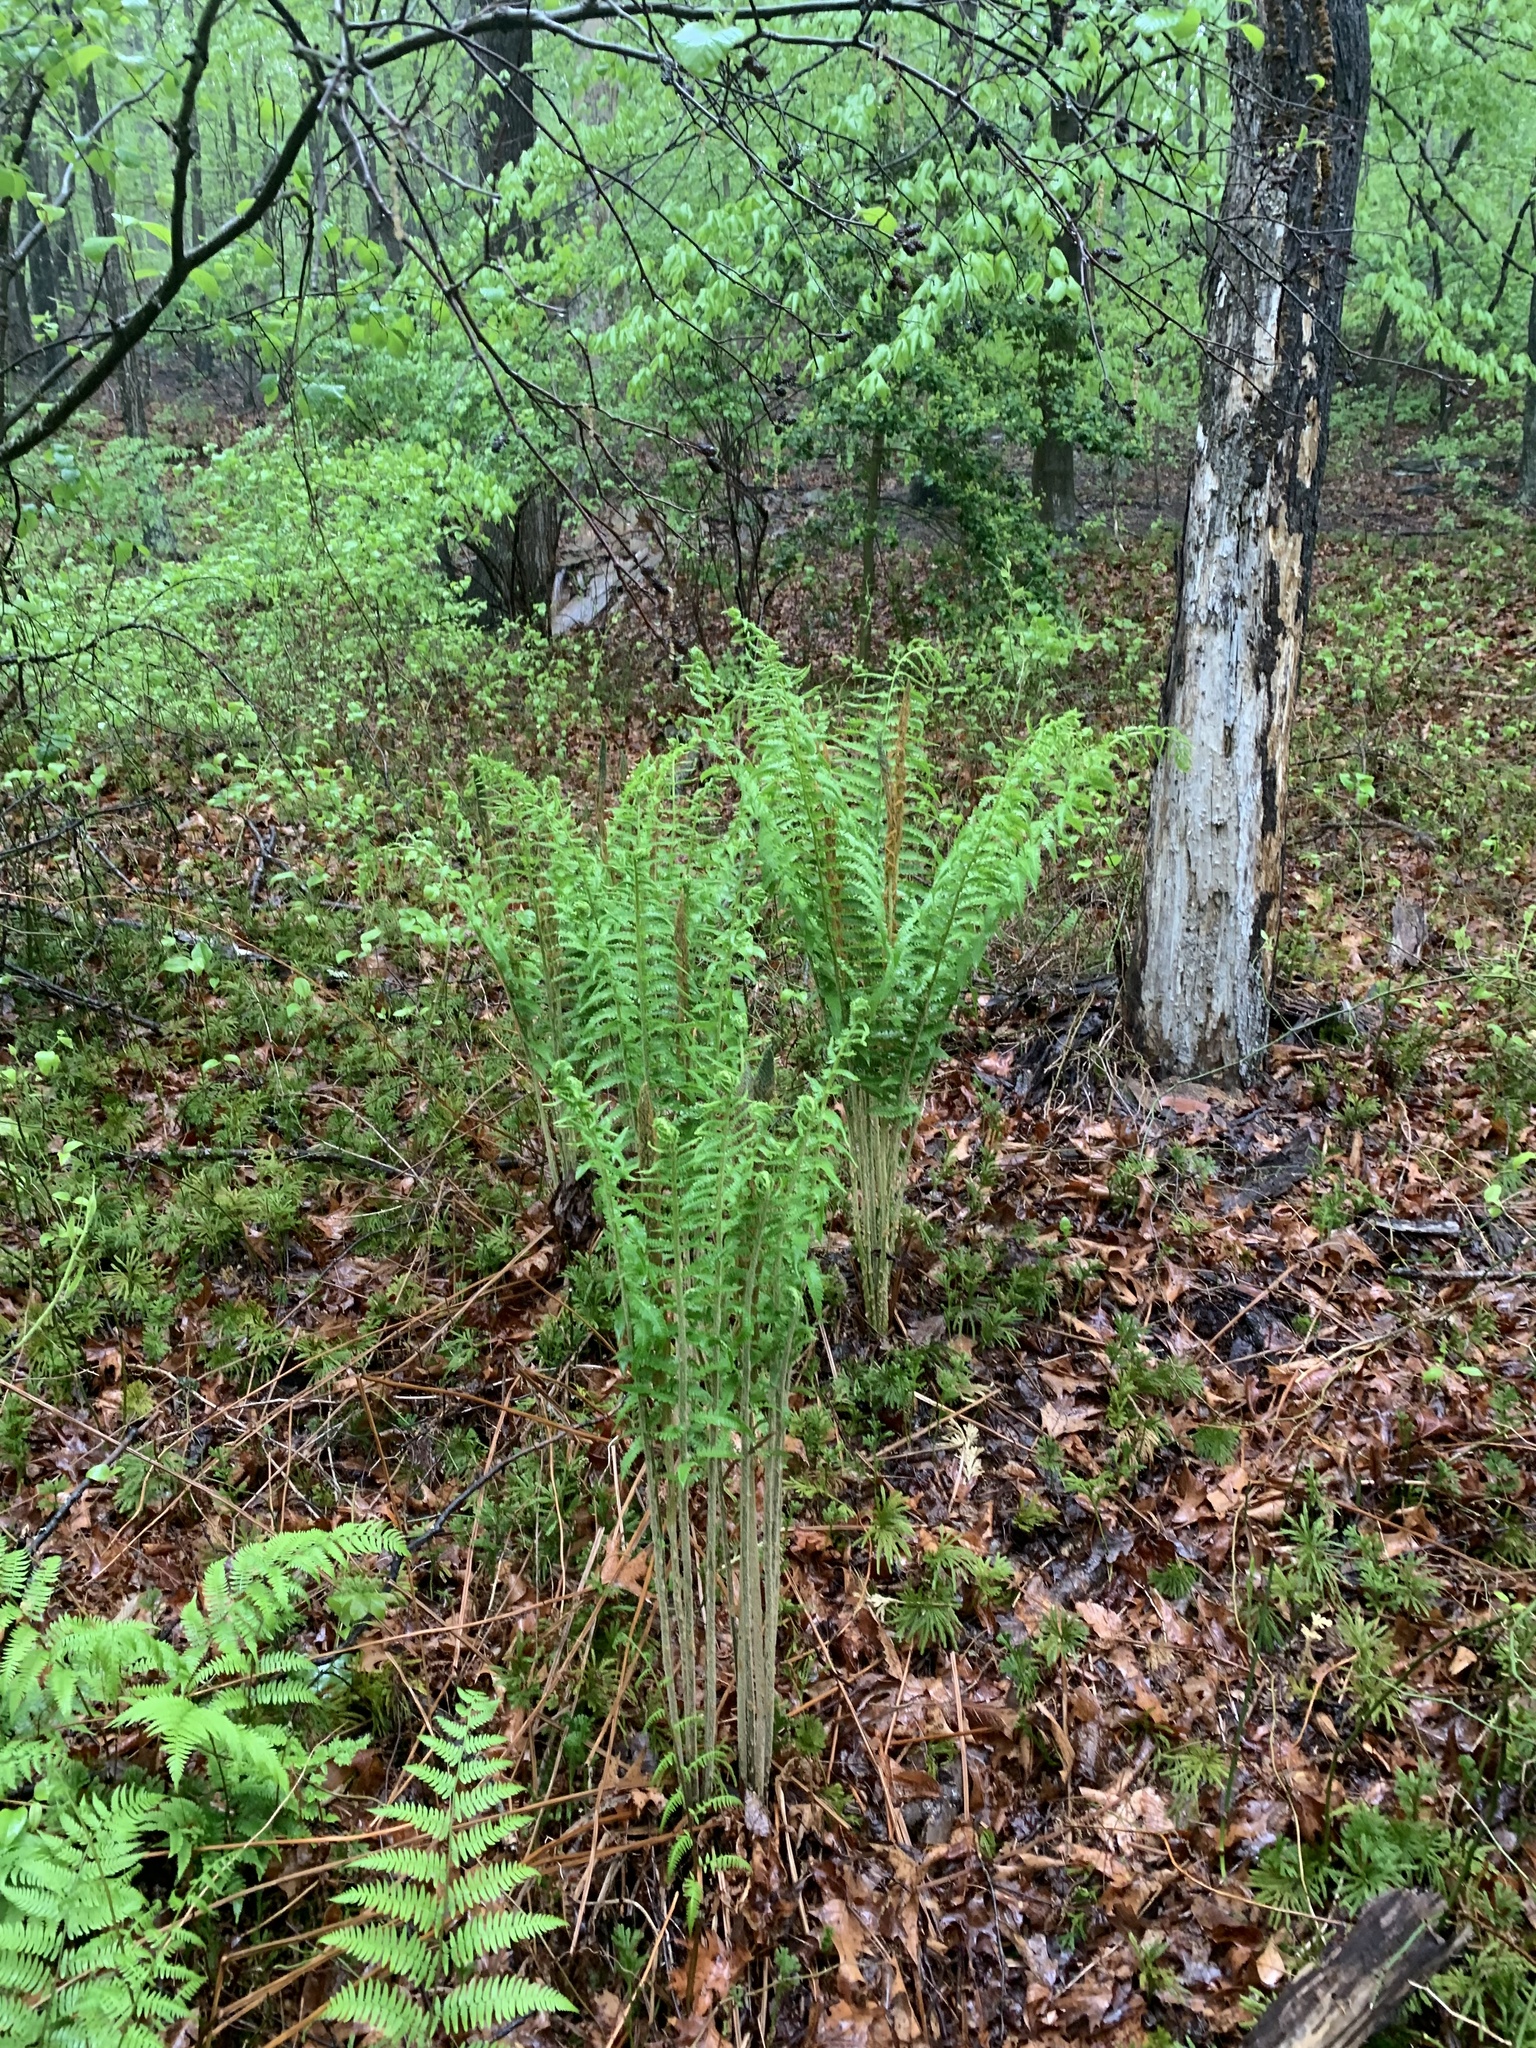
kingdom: Plantae
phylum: Tracheophyta
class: Polypodiopsida
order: Osmundales
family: Osmundaceae
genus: Osmundastrum
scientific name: Osmundastrum cinnamomeum
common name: Cinnamon fern
